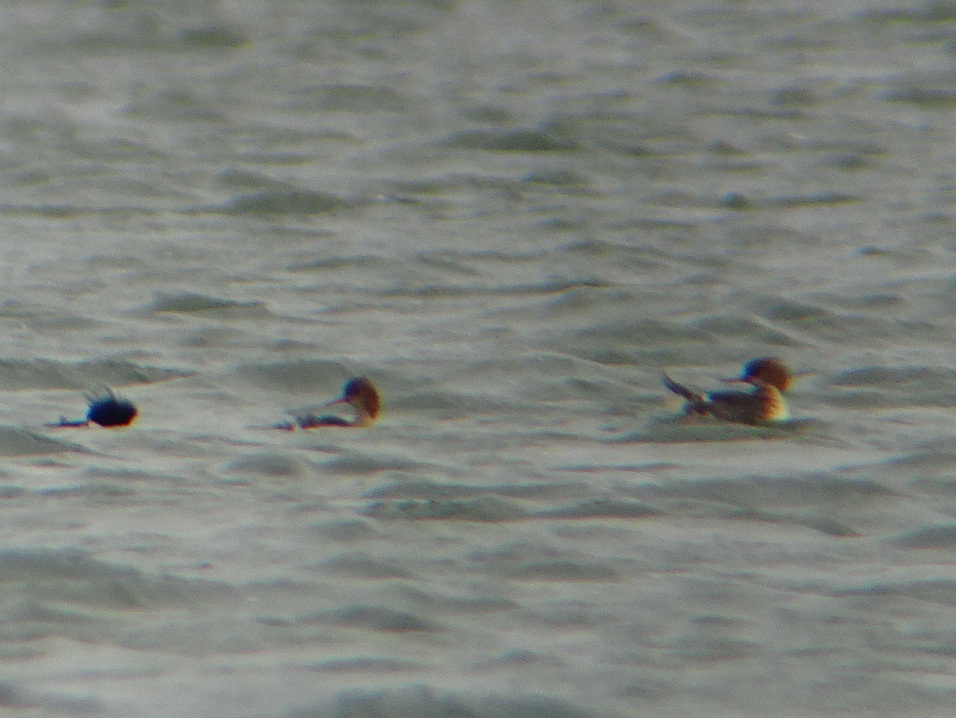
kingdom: Animalia
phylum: Chordata
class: Aves
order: Anseriformes
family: Anatidae
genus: Mergus
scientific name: Mergus serrator
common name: Red-breasted merganser
